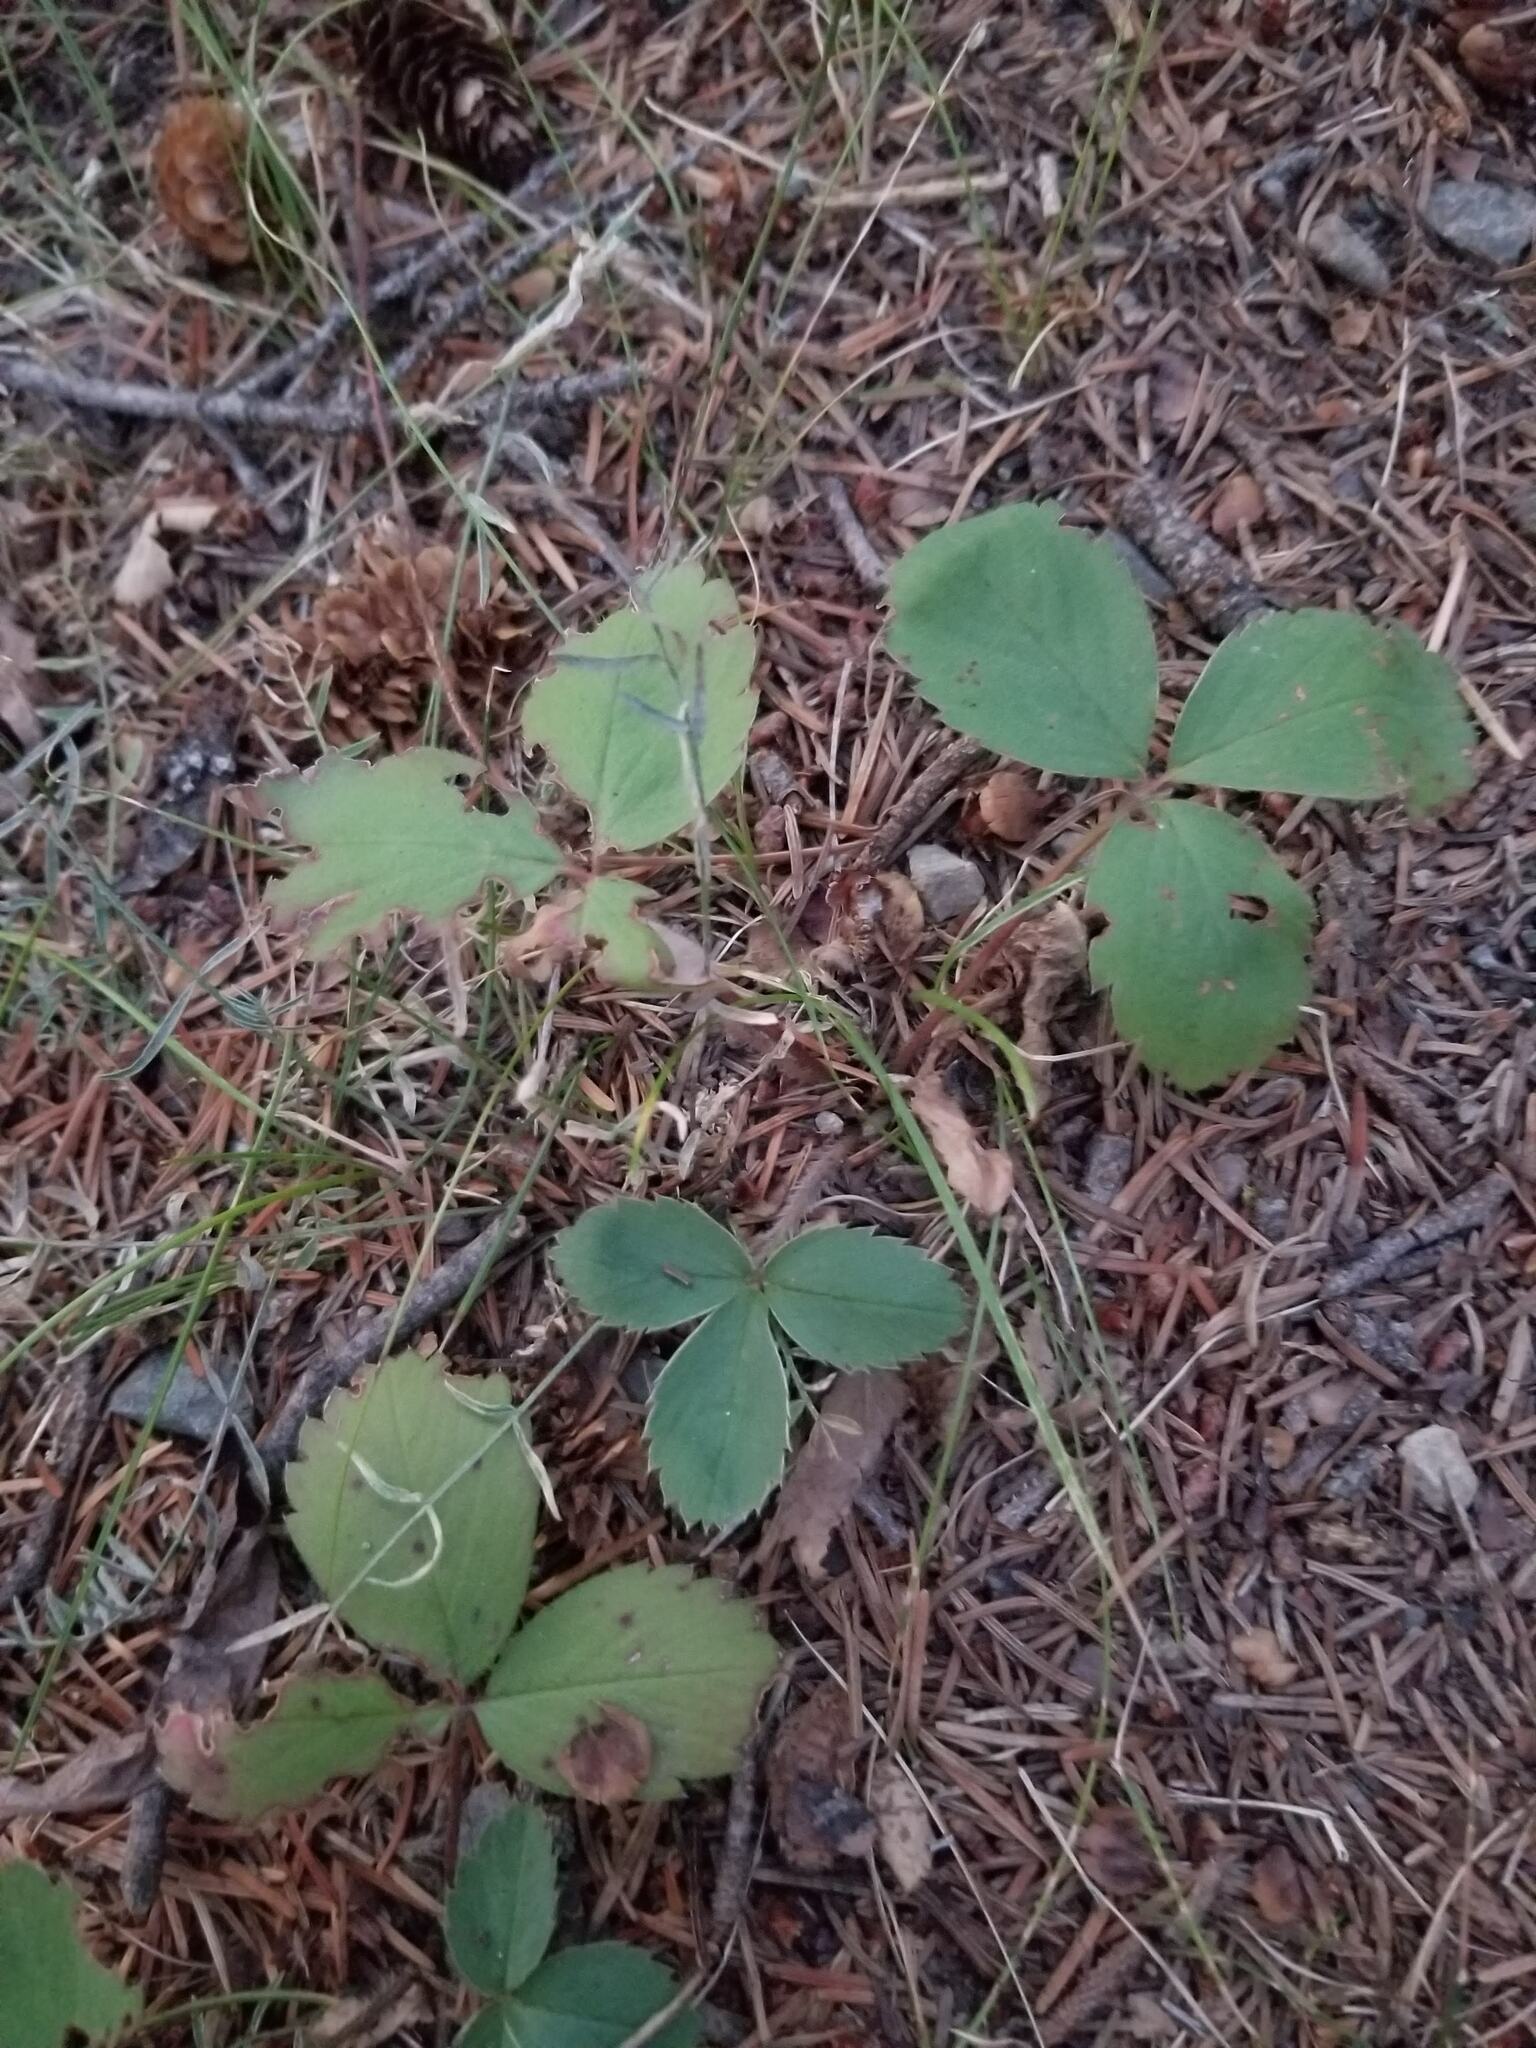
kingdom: Plantae
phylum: Tracheophyta
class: Magnoliopsida
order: Rosales
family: Rosaceae
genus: Fragaria
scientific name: Fragaria virginiana
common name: Thickleaved wild strawberry
